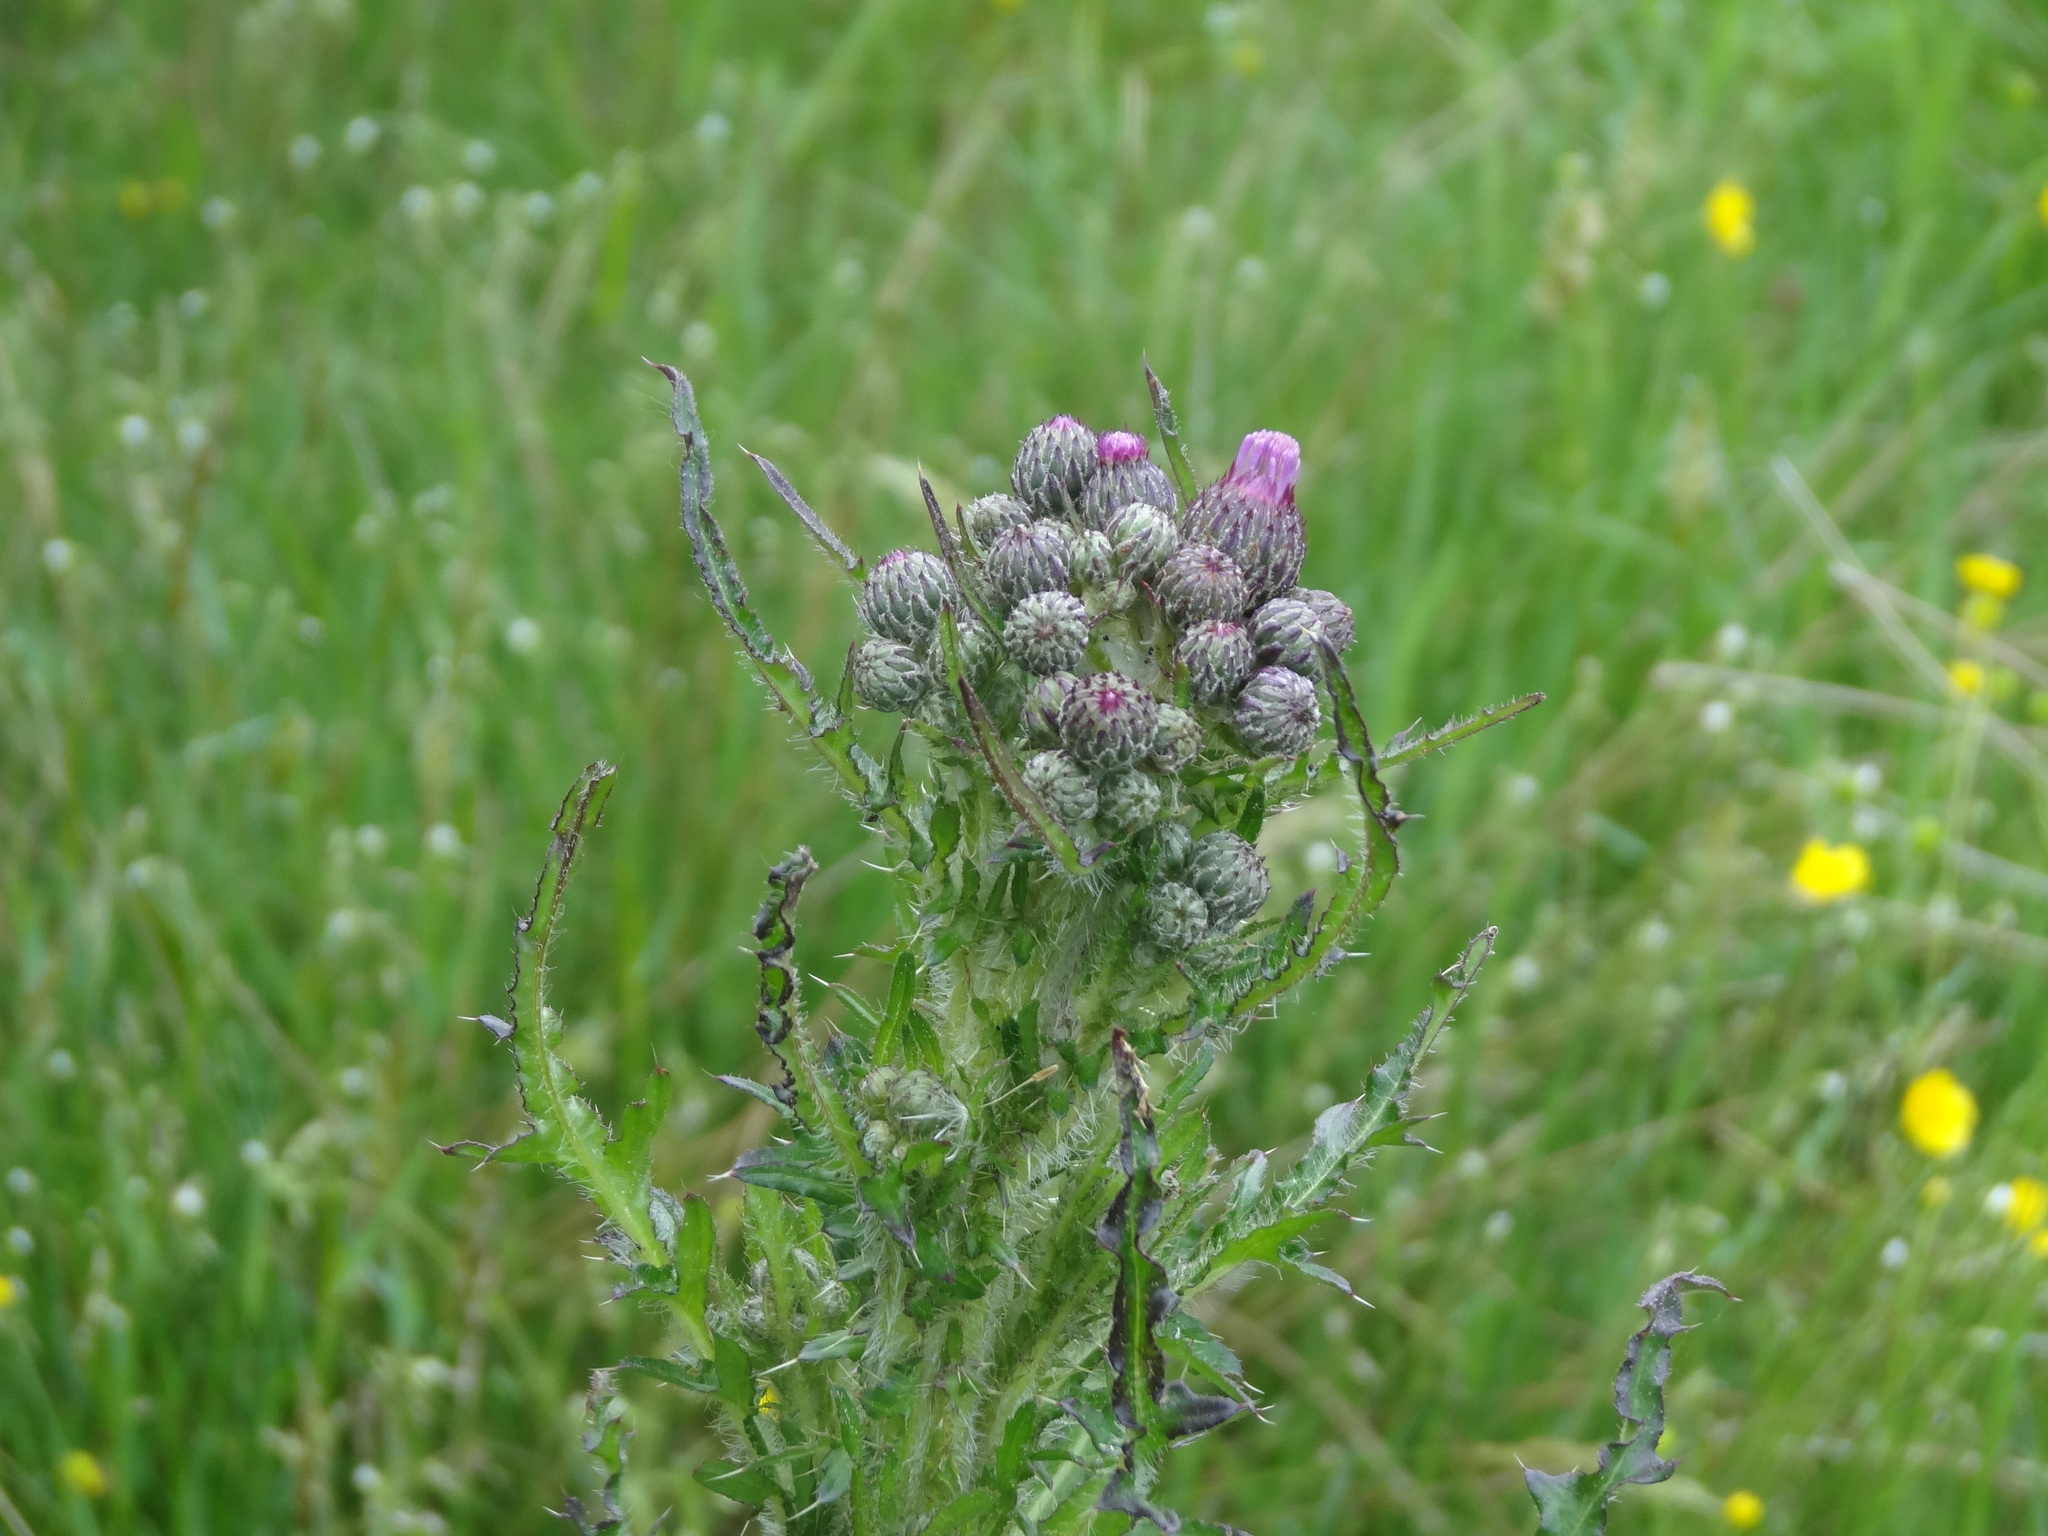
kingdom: Plantae
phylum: Tracheophyta
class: Magnoliopsida
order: Asterales
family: Asteraceae
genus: Cirsium
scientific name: Cirsium palustre
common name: Marsh thistle
